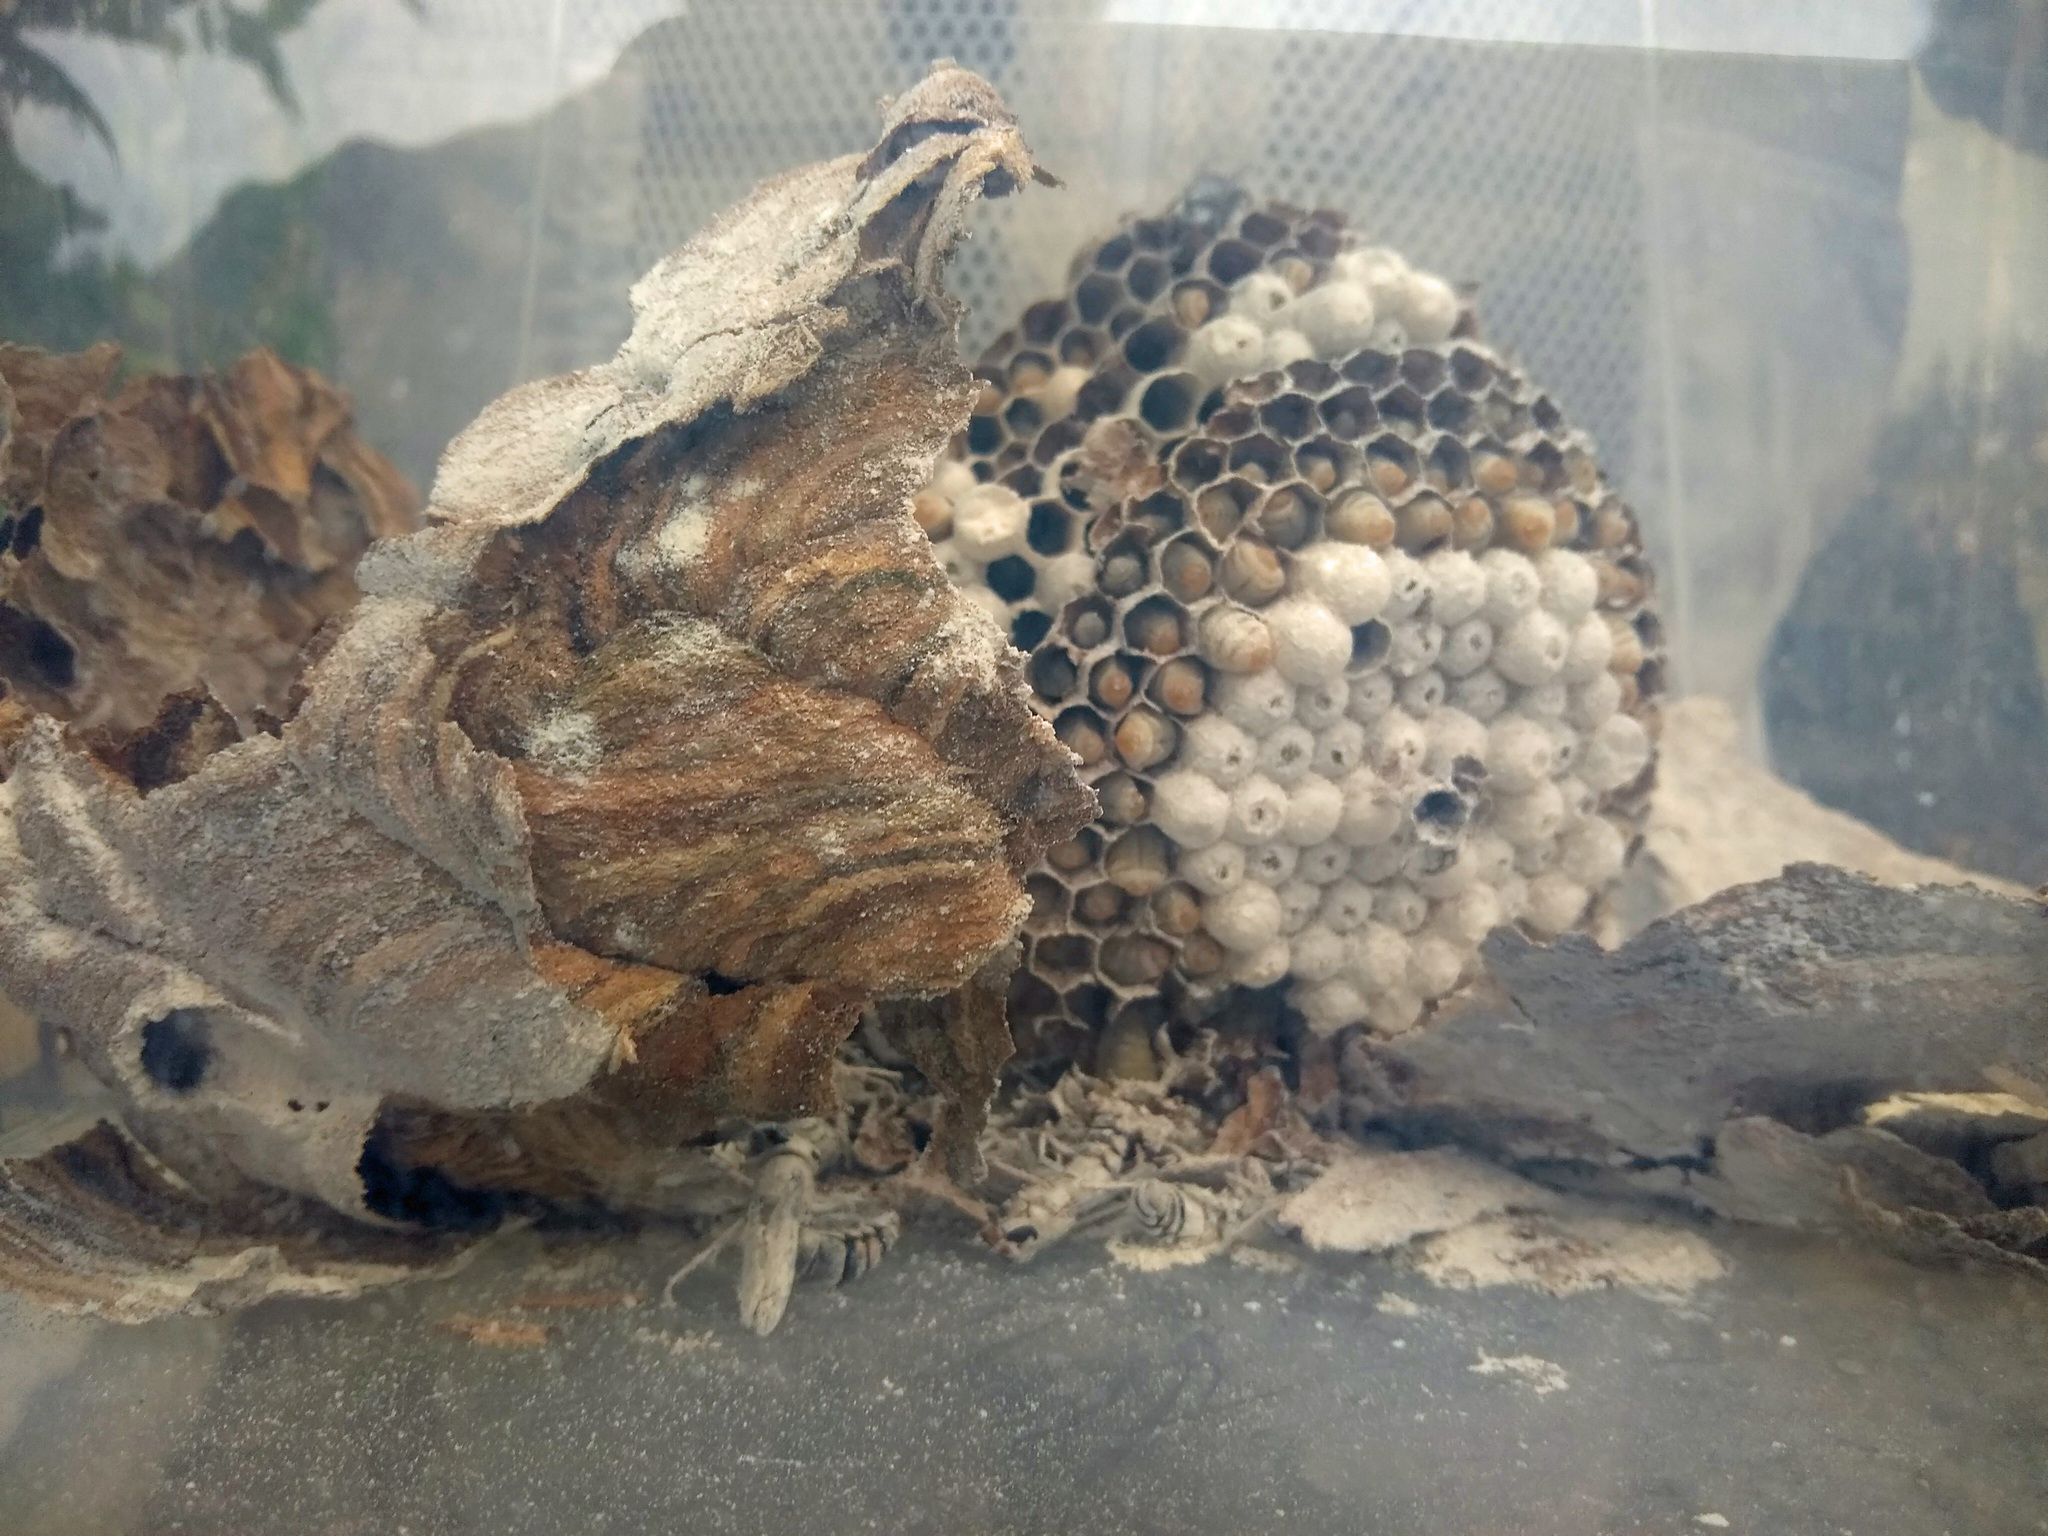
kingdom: Animalia
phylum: Arthropoda
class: Insecta
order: Hymenoptera
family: Vespidae
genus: Vespa
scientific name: Vespa velutina
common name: Asian hornet
